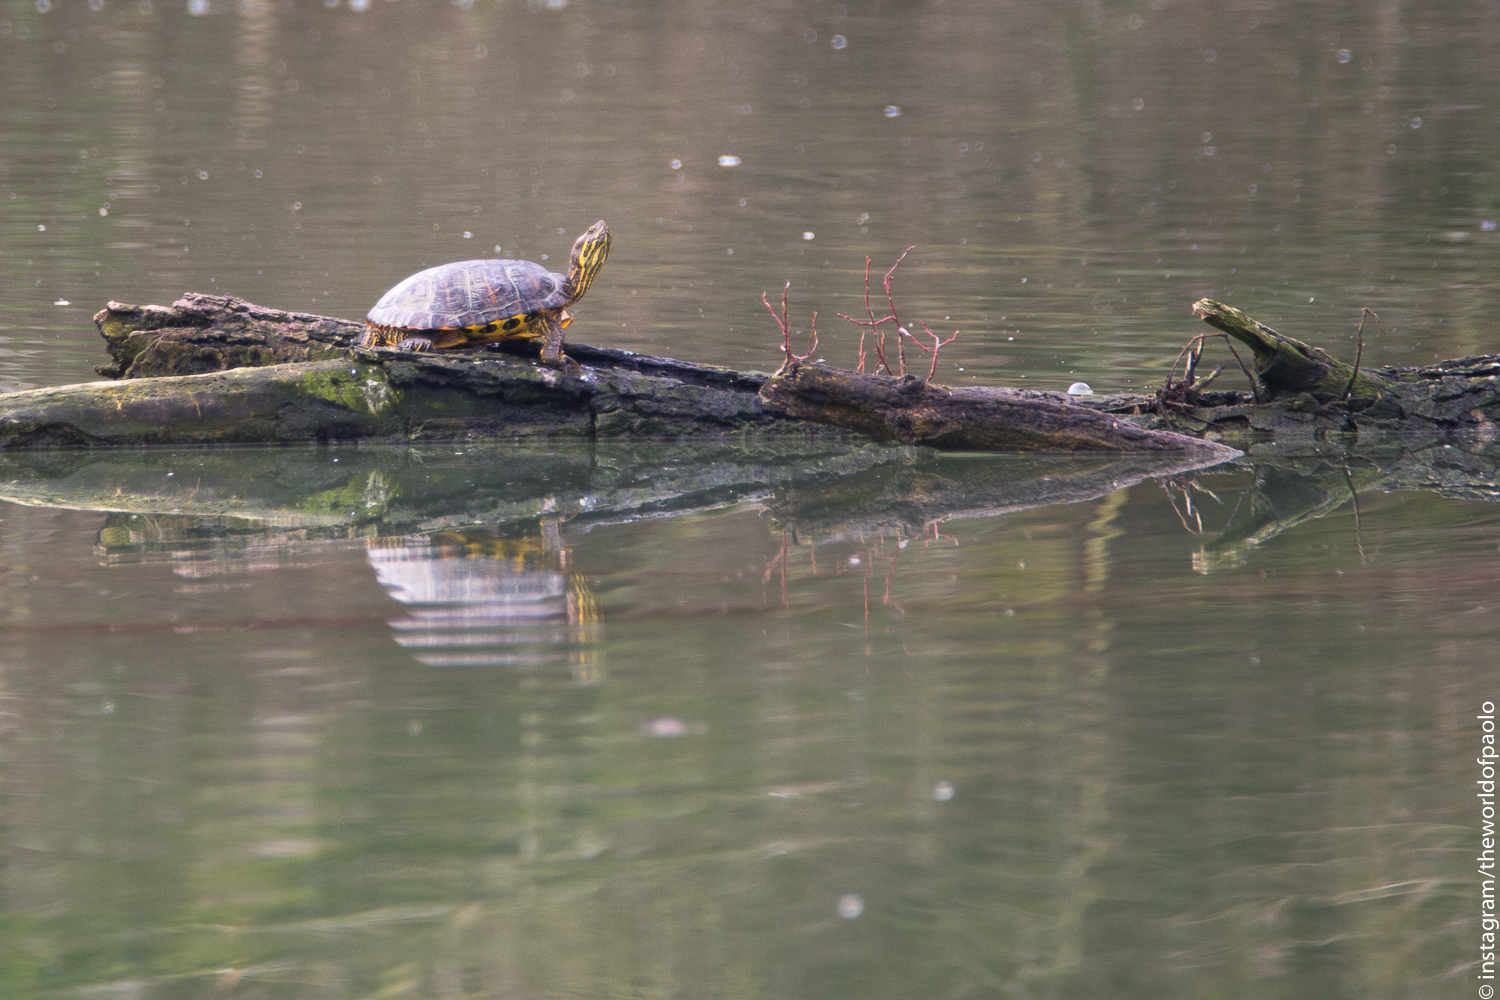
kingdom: Animalia
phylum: Chordata
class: Testudines
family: Emydidae
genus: Trachemys
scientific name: Trachemys scripta
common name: Slider
